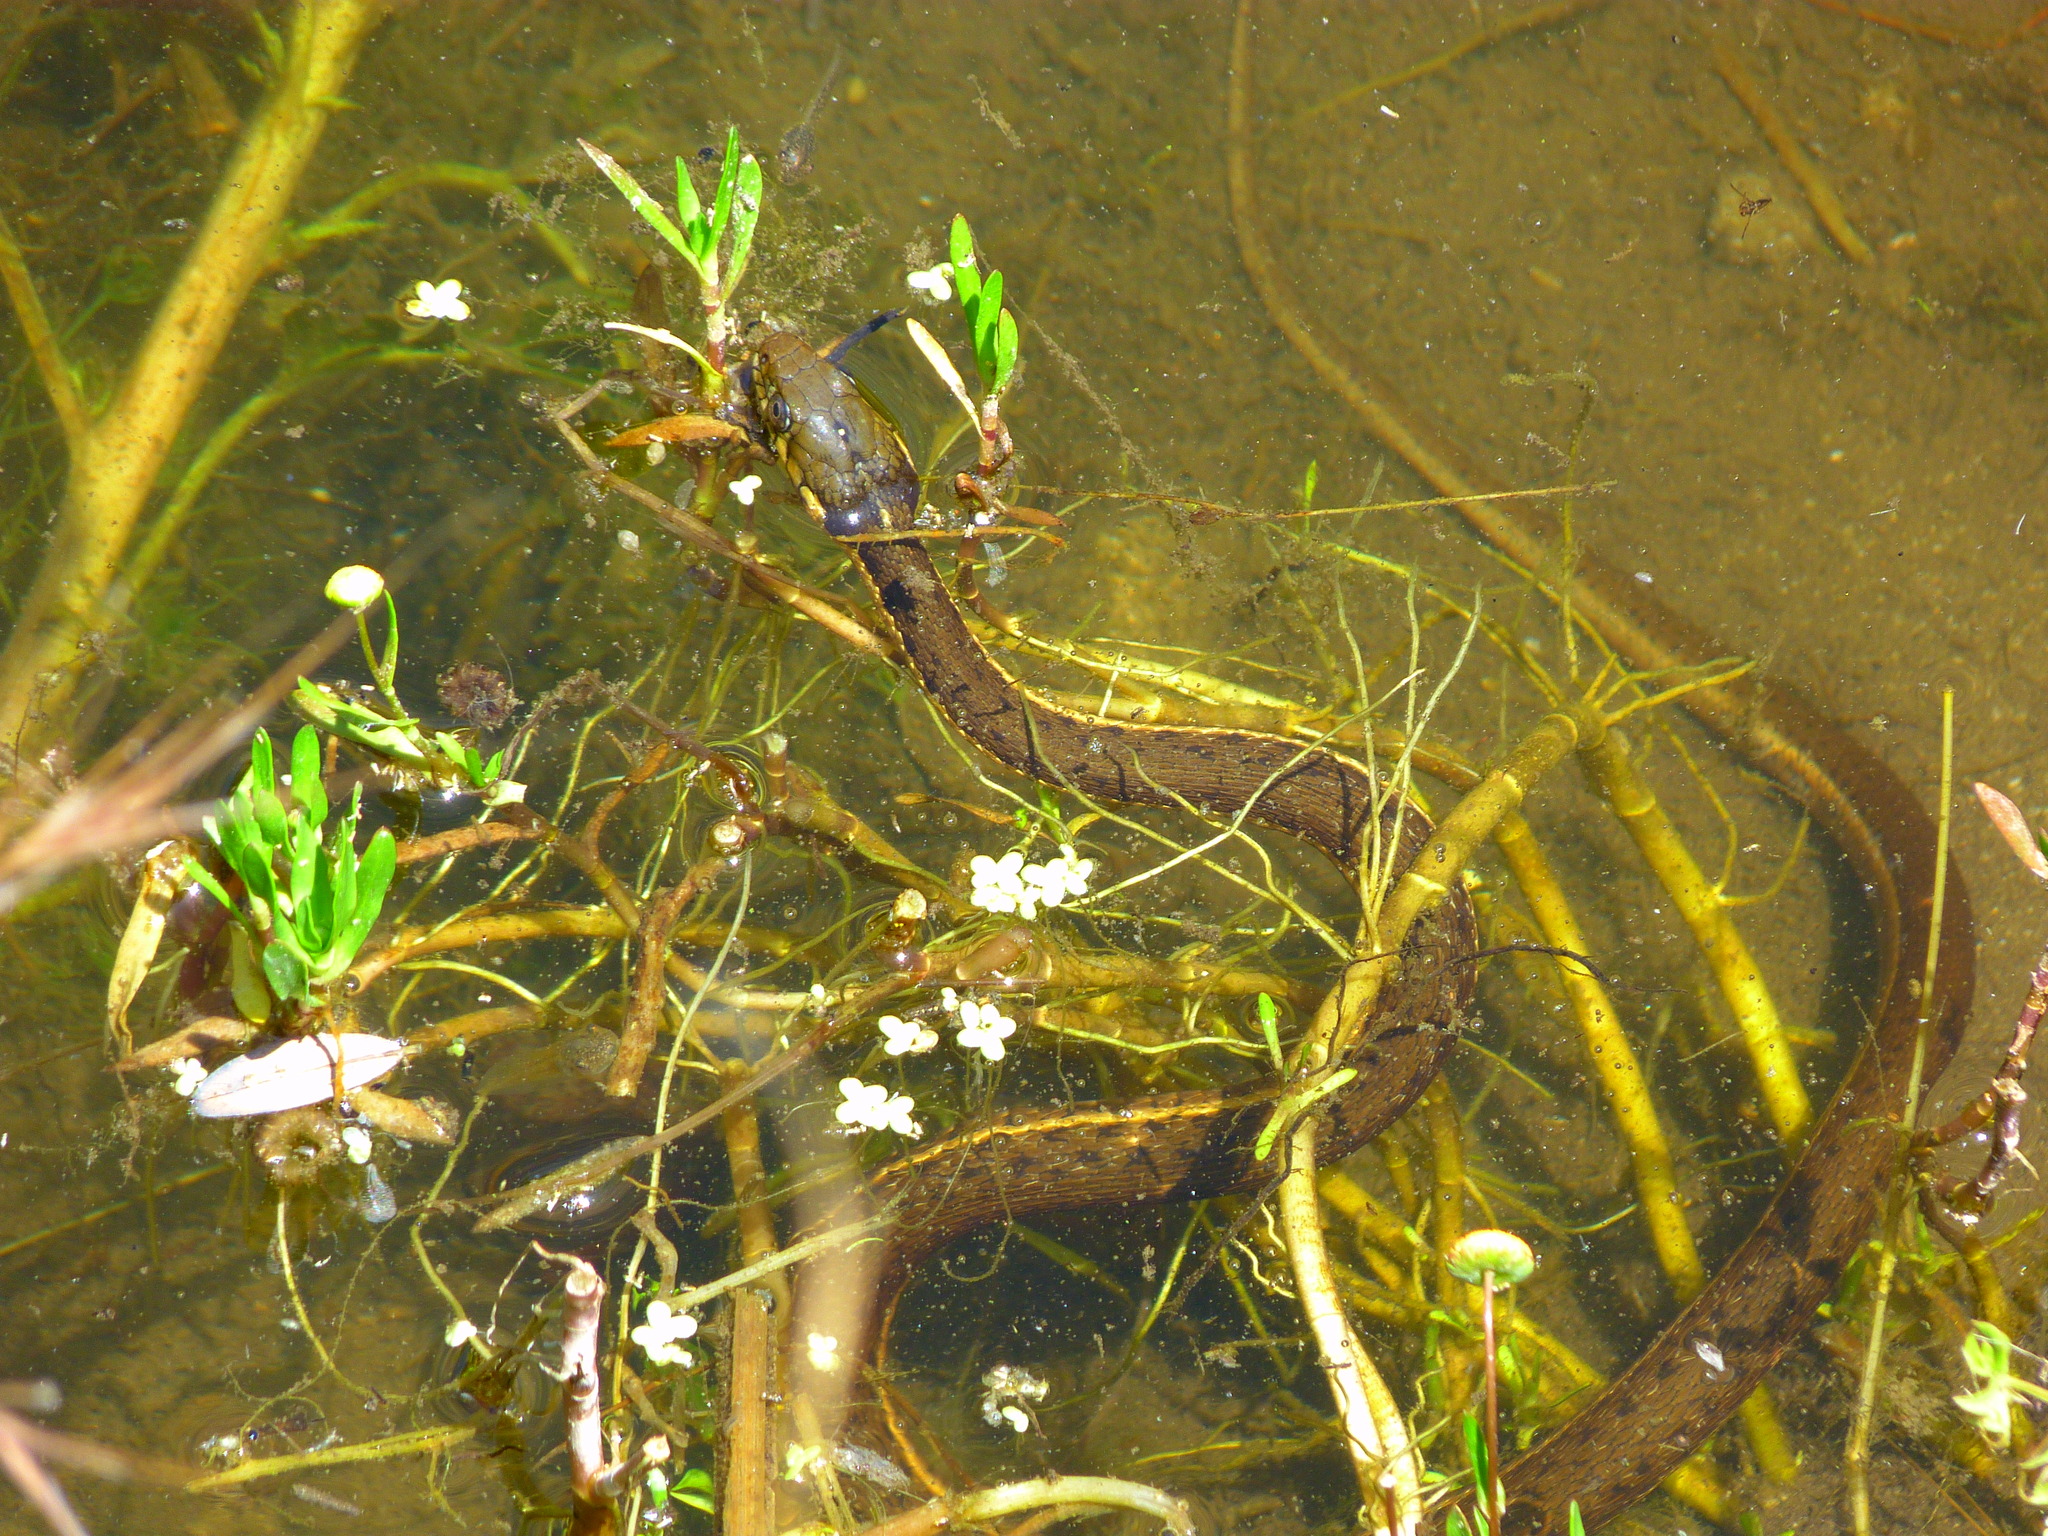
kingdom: Animalia
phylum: Chordata
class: Squamata
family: Colubridae
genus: Thamnophis
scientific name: Thamnophis hammondii
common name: Two-striped garter snake
